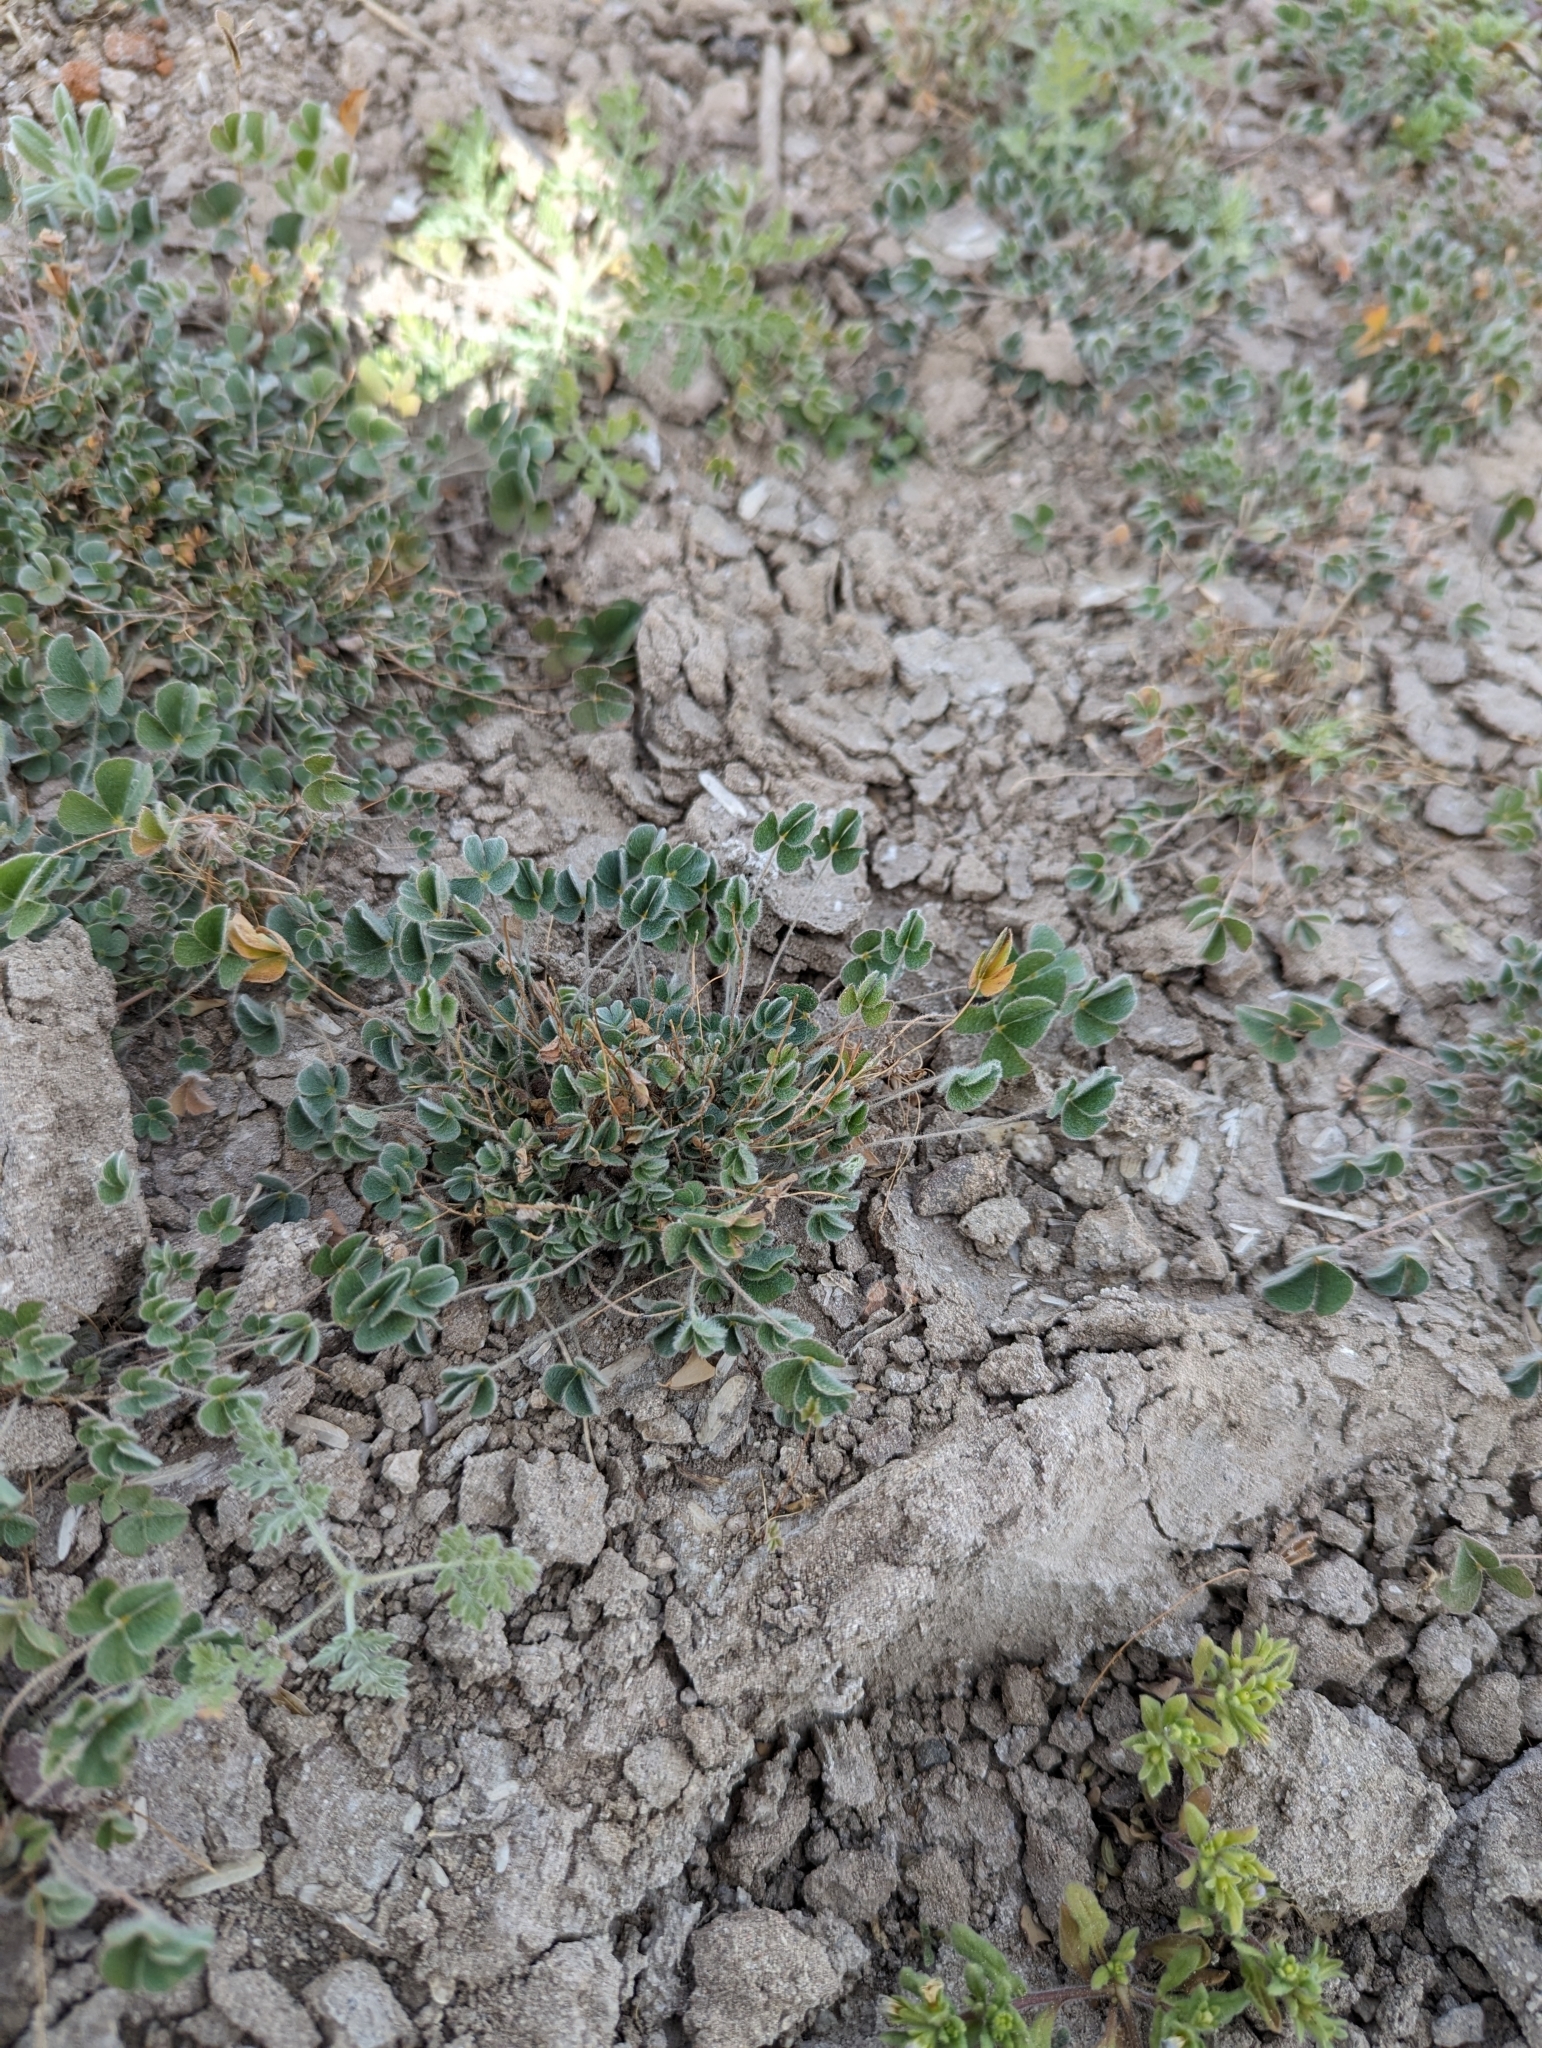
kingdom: Plantae
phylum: Tracheophyta
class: Polypodiopsida
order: Salviniales
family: Marsileaceae
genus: Marsilea
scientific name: Marsilea vestita
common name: Hooked-pepperwort
